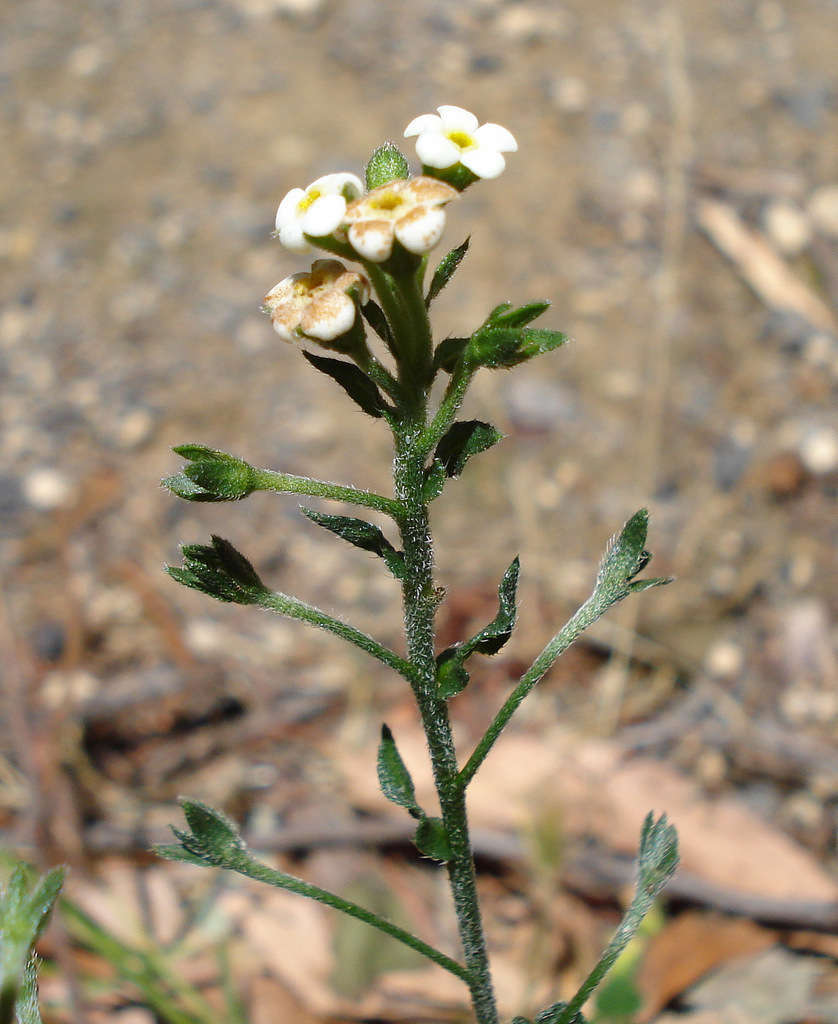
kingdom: Plantae
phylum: Tracheophyta
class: Magnoliopsida
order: Boraginales
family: Boraginaceae
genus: Hackelia
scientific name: Hackelia suaveolens
